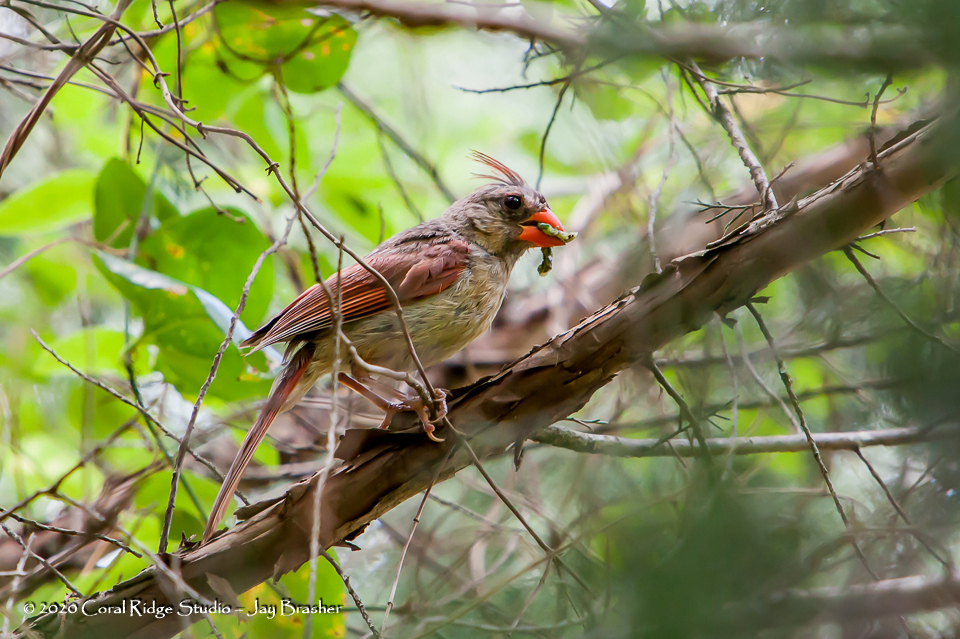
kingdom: Animalia
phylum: Chordata
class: Aves
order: Passeriformes
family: Cardinalidae
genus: Cardinalis
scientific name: Cardinalis cardinalis
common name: Northern cardinal
